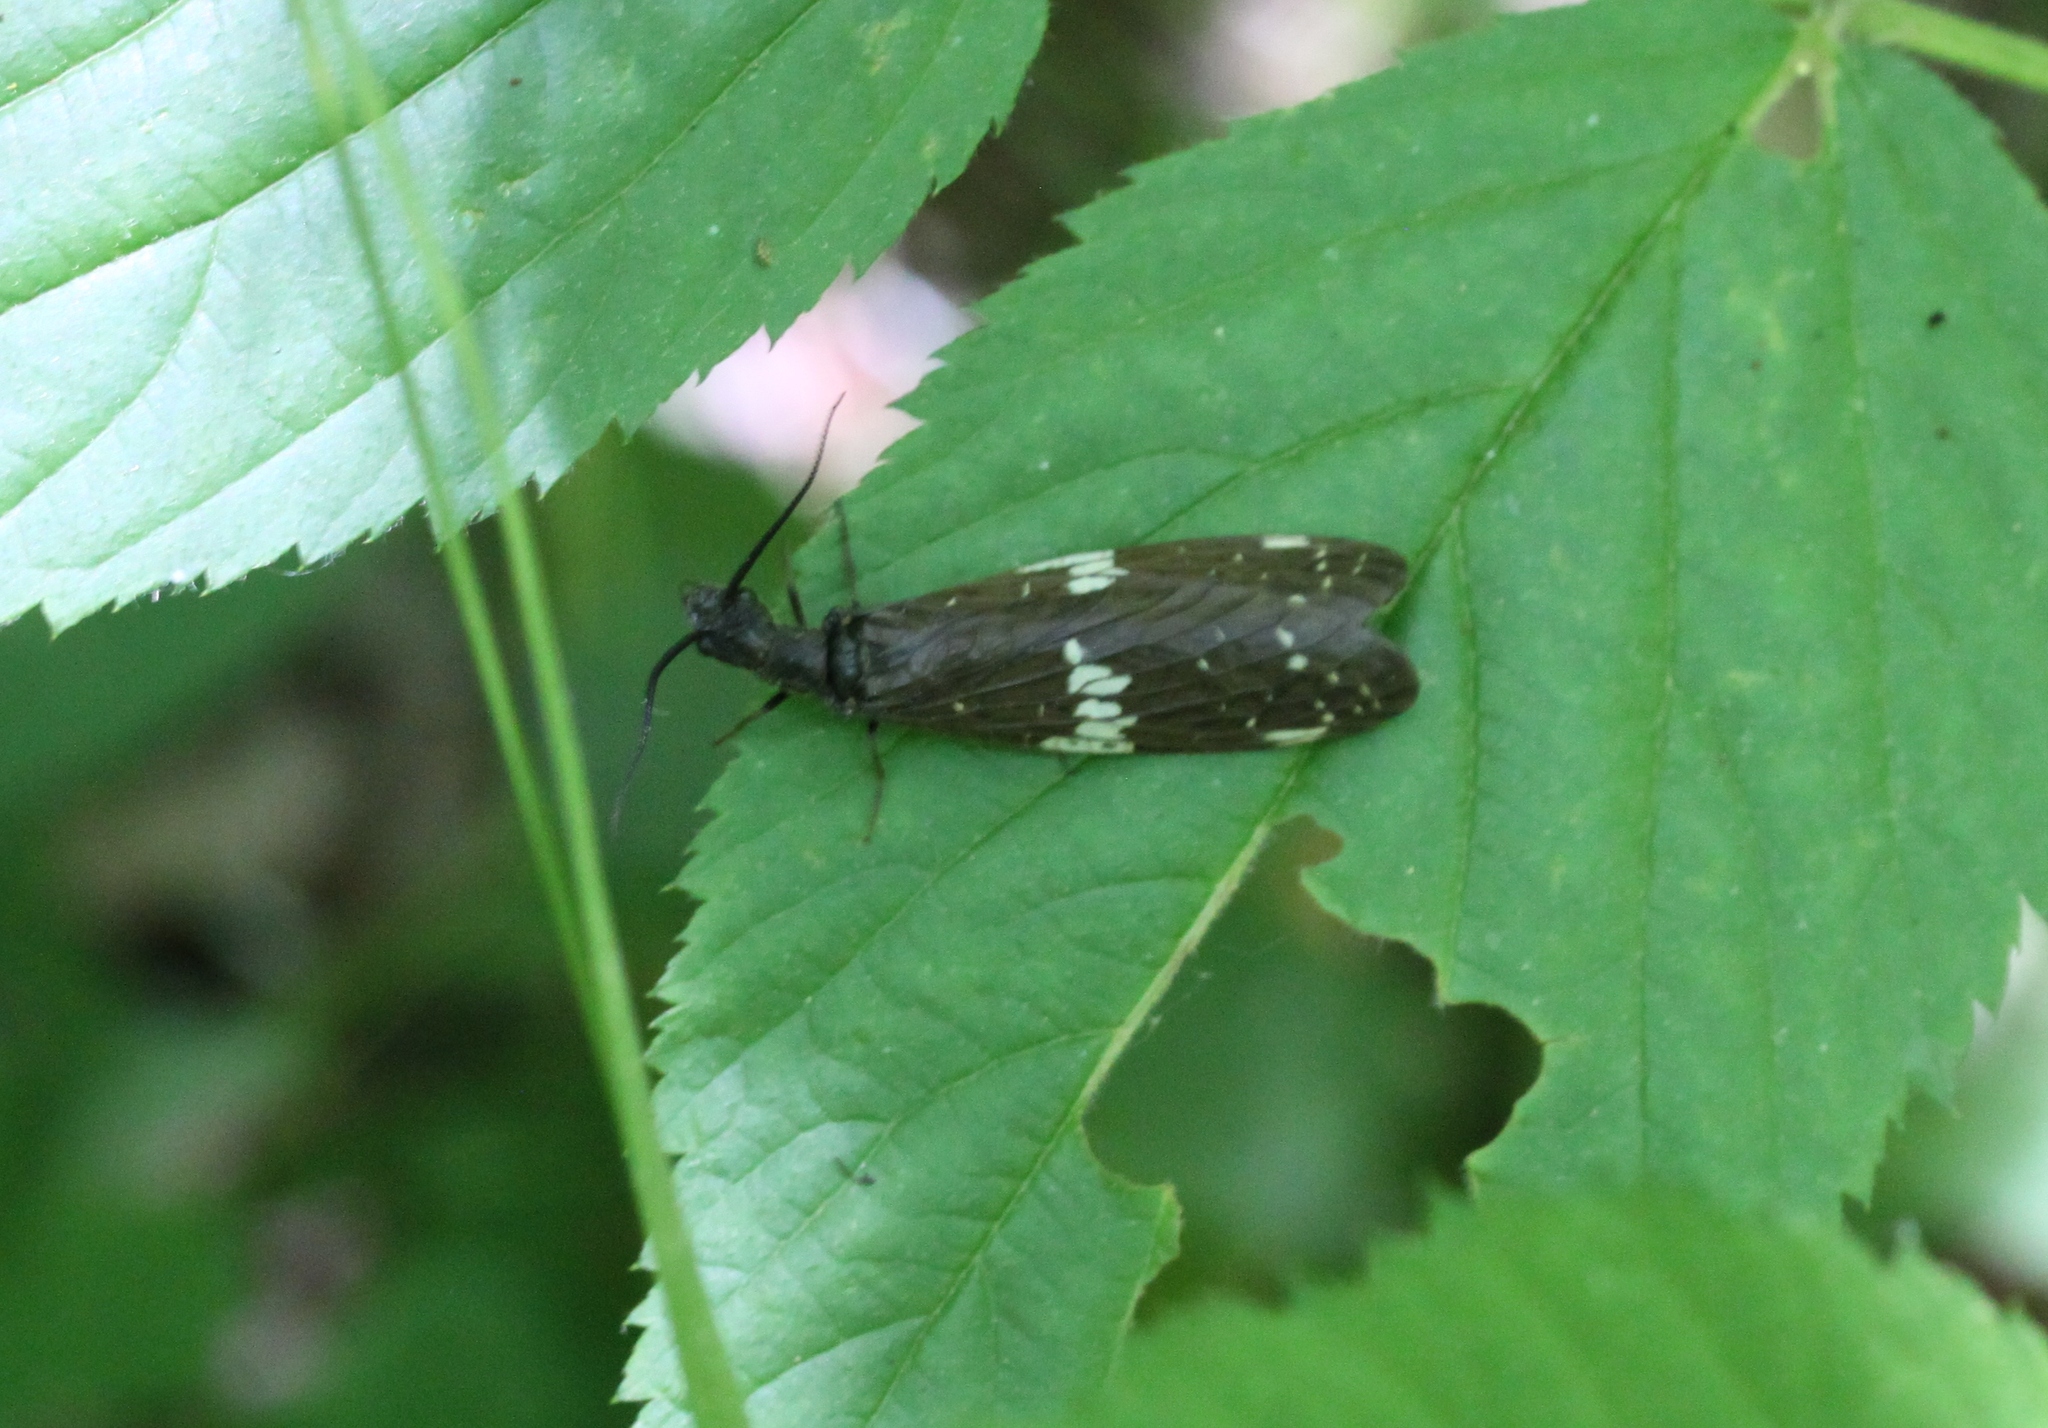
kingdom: Animalia
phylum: Arthropoda
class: Insecta
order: Megaloptera
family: Corydalidae
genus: Nigronia
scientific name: Nigronia serricornis
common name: Serrate dark fishfly
